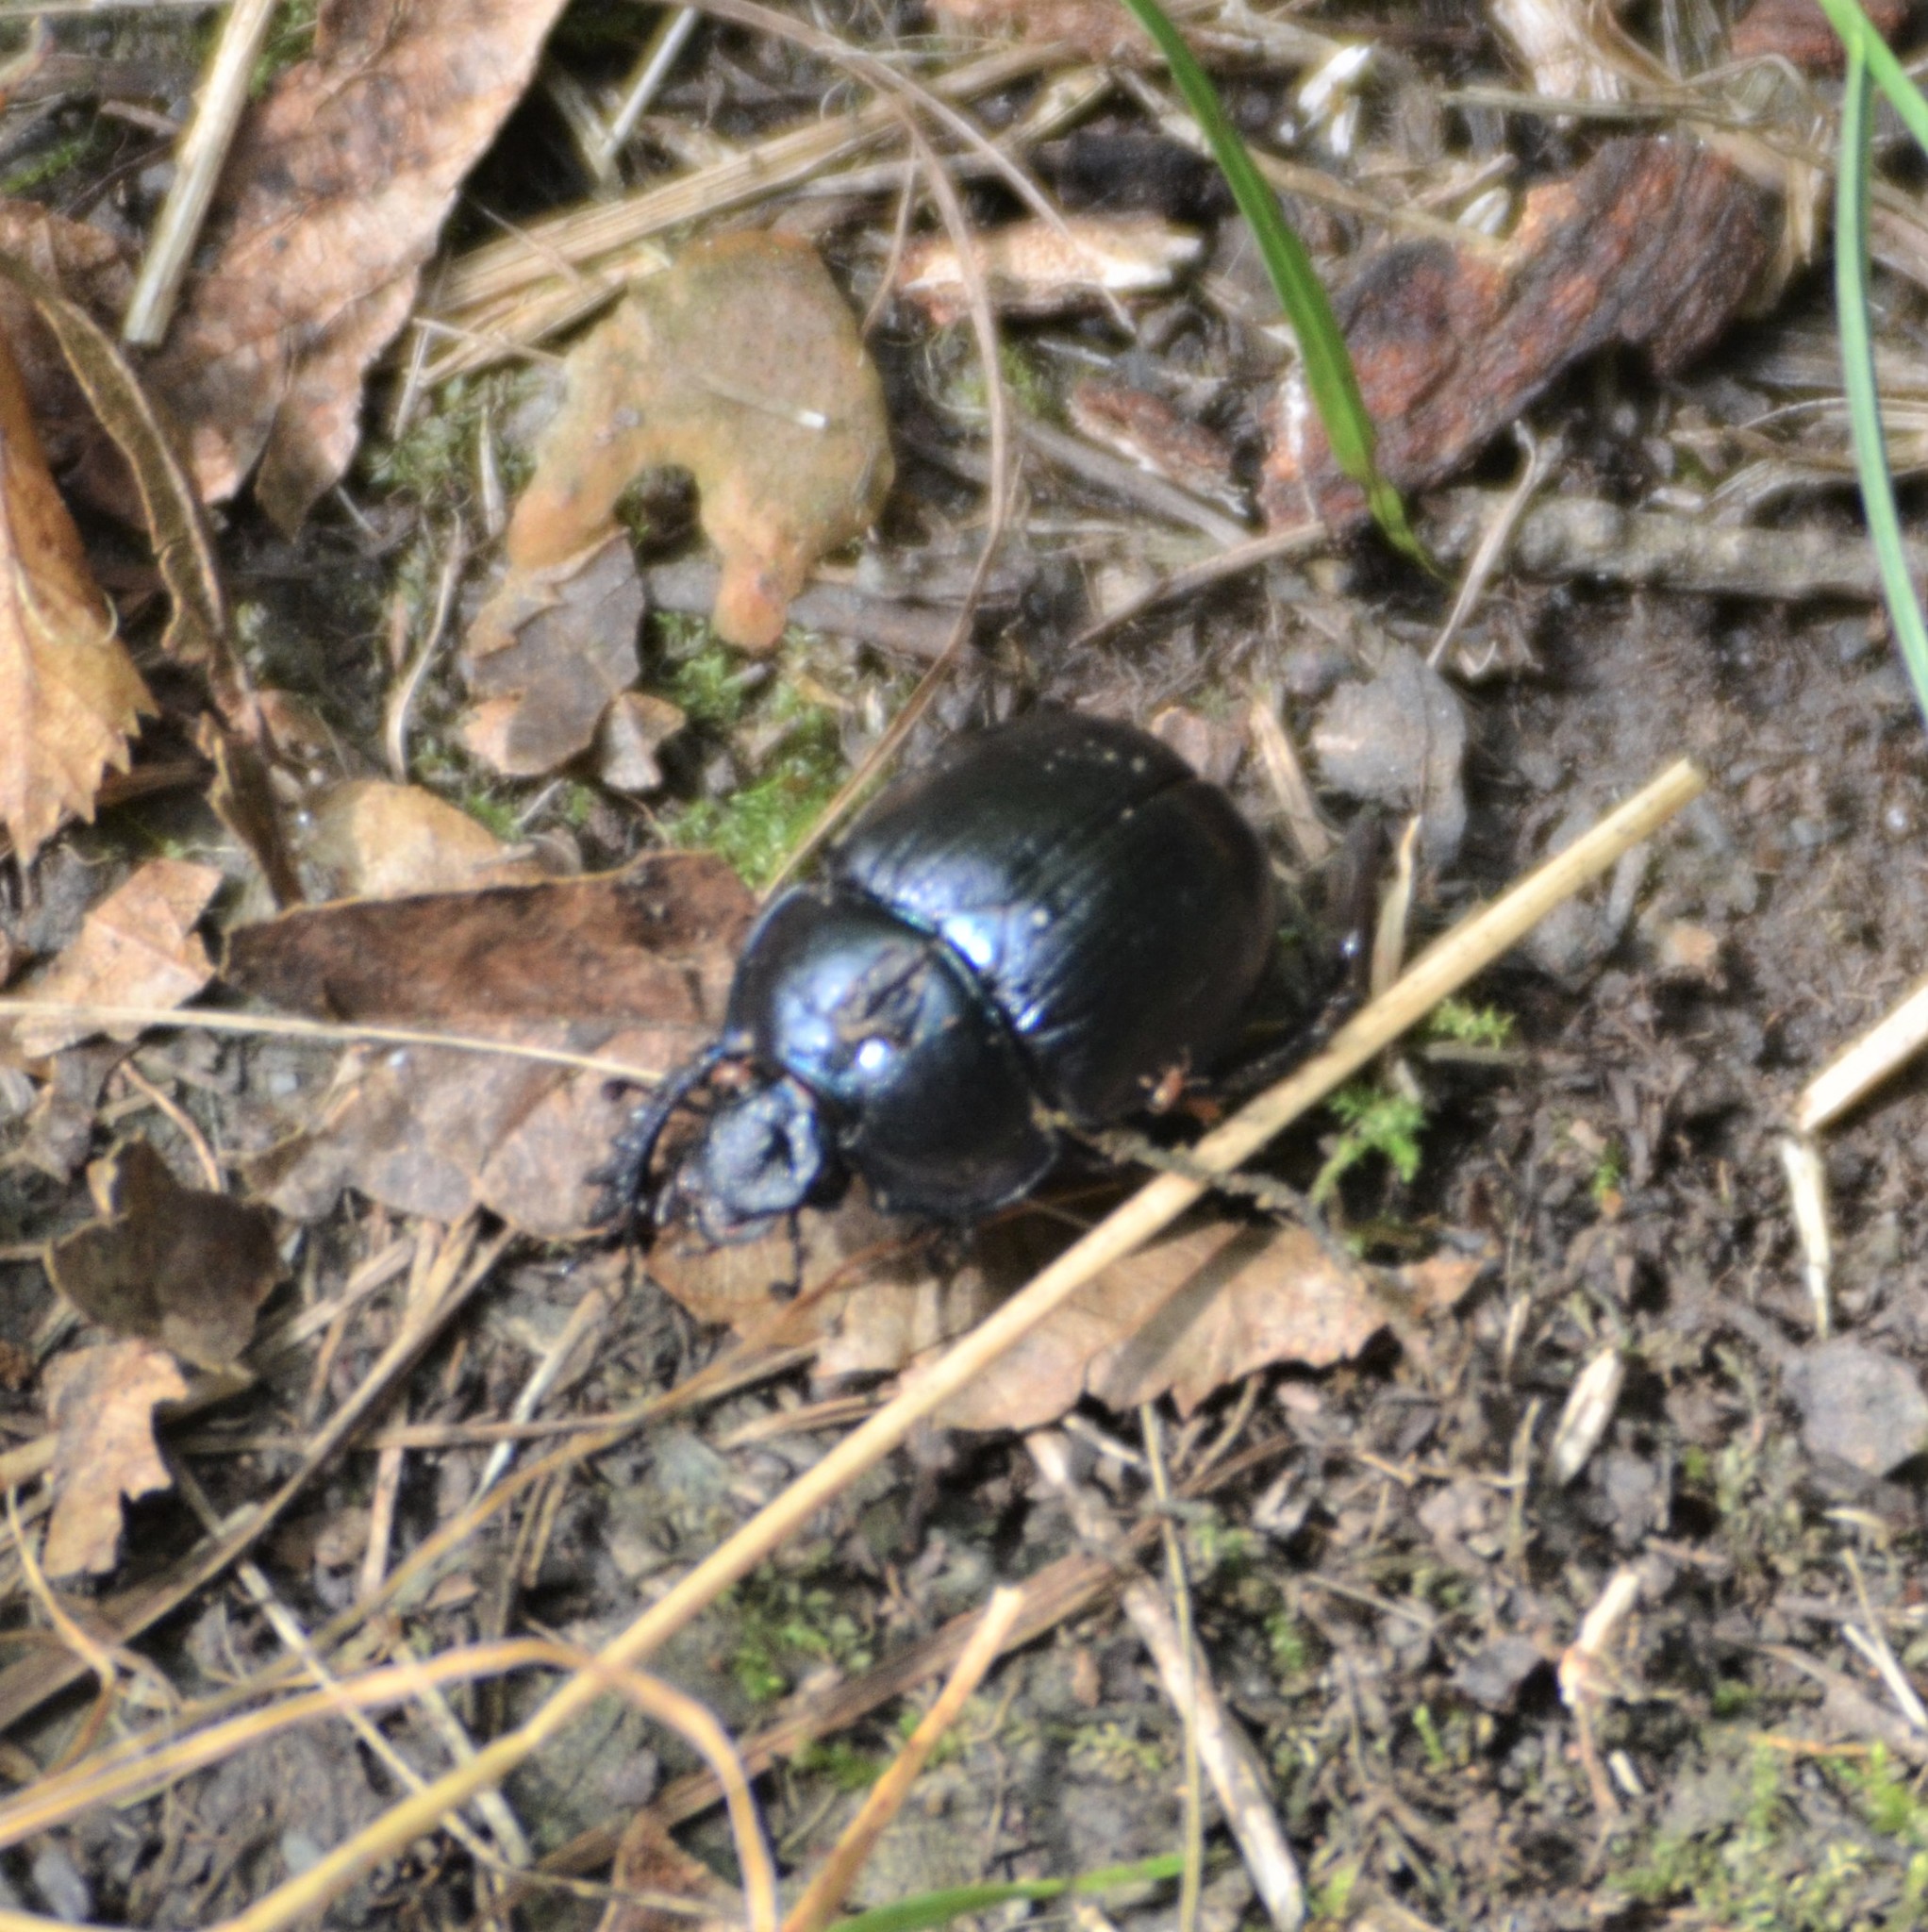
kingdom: Animalia
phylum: Arthropoda
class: Insecta
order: Coleoptera
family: Geotrupidae
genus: Anoplotrupes
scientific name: Anoplotrupes stercorosus
